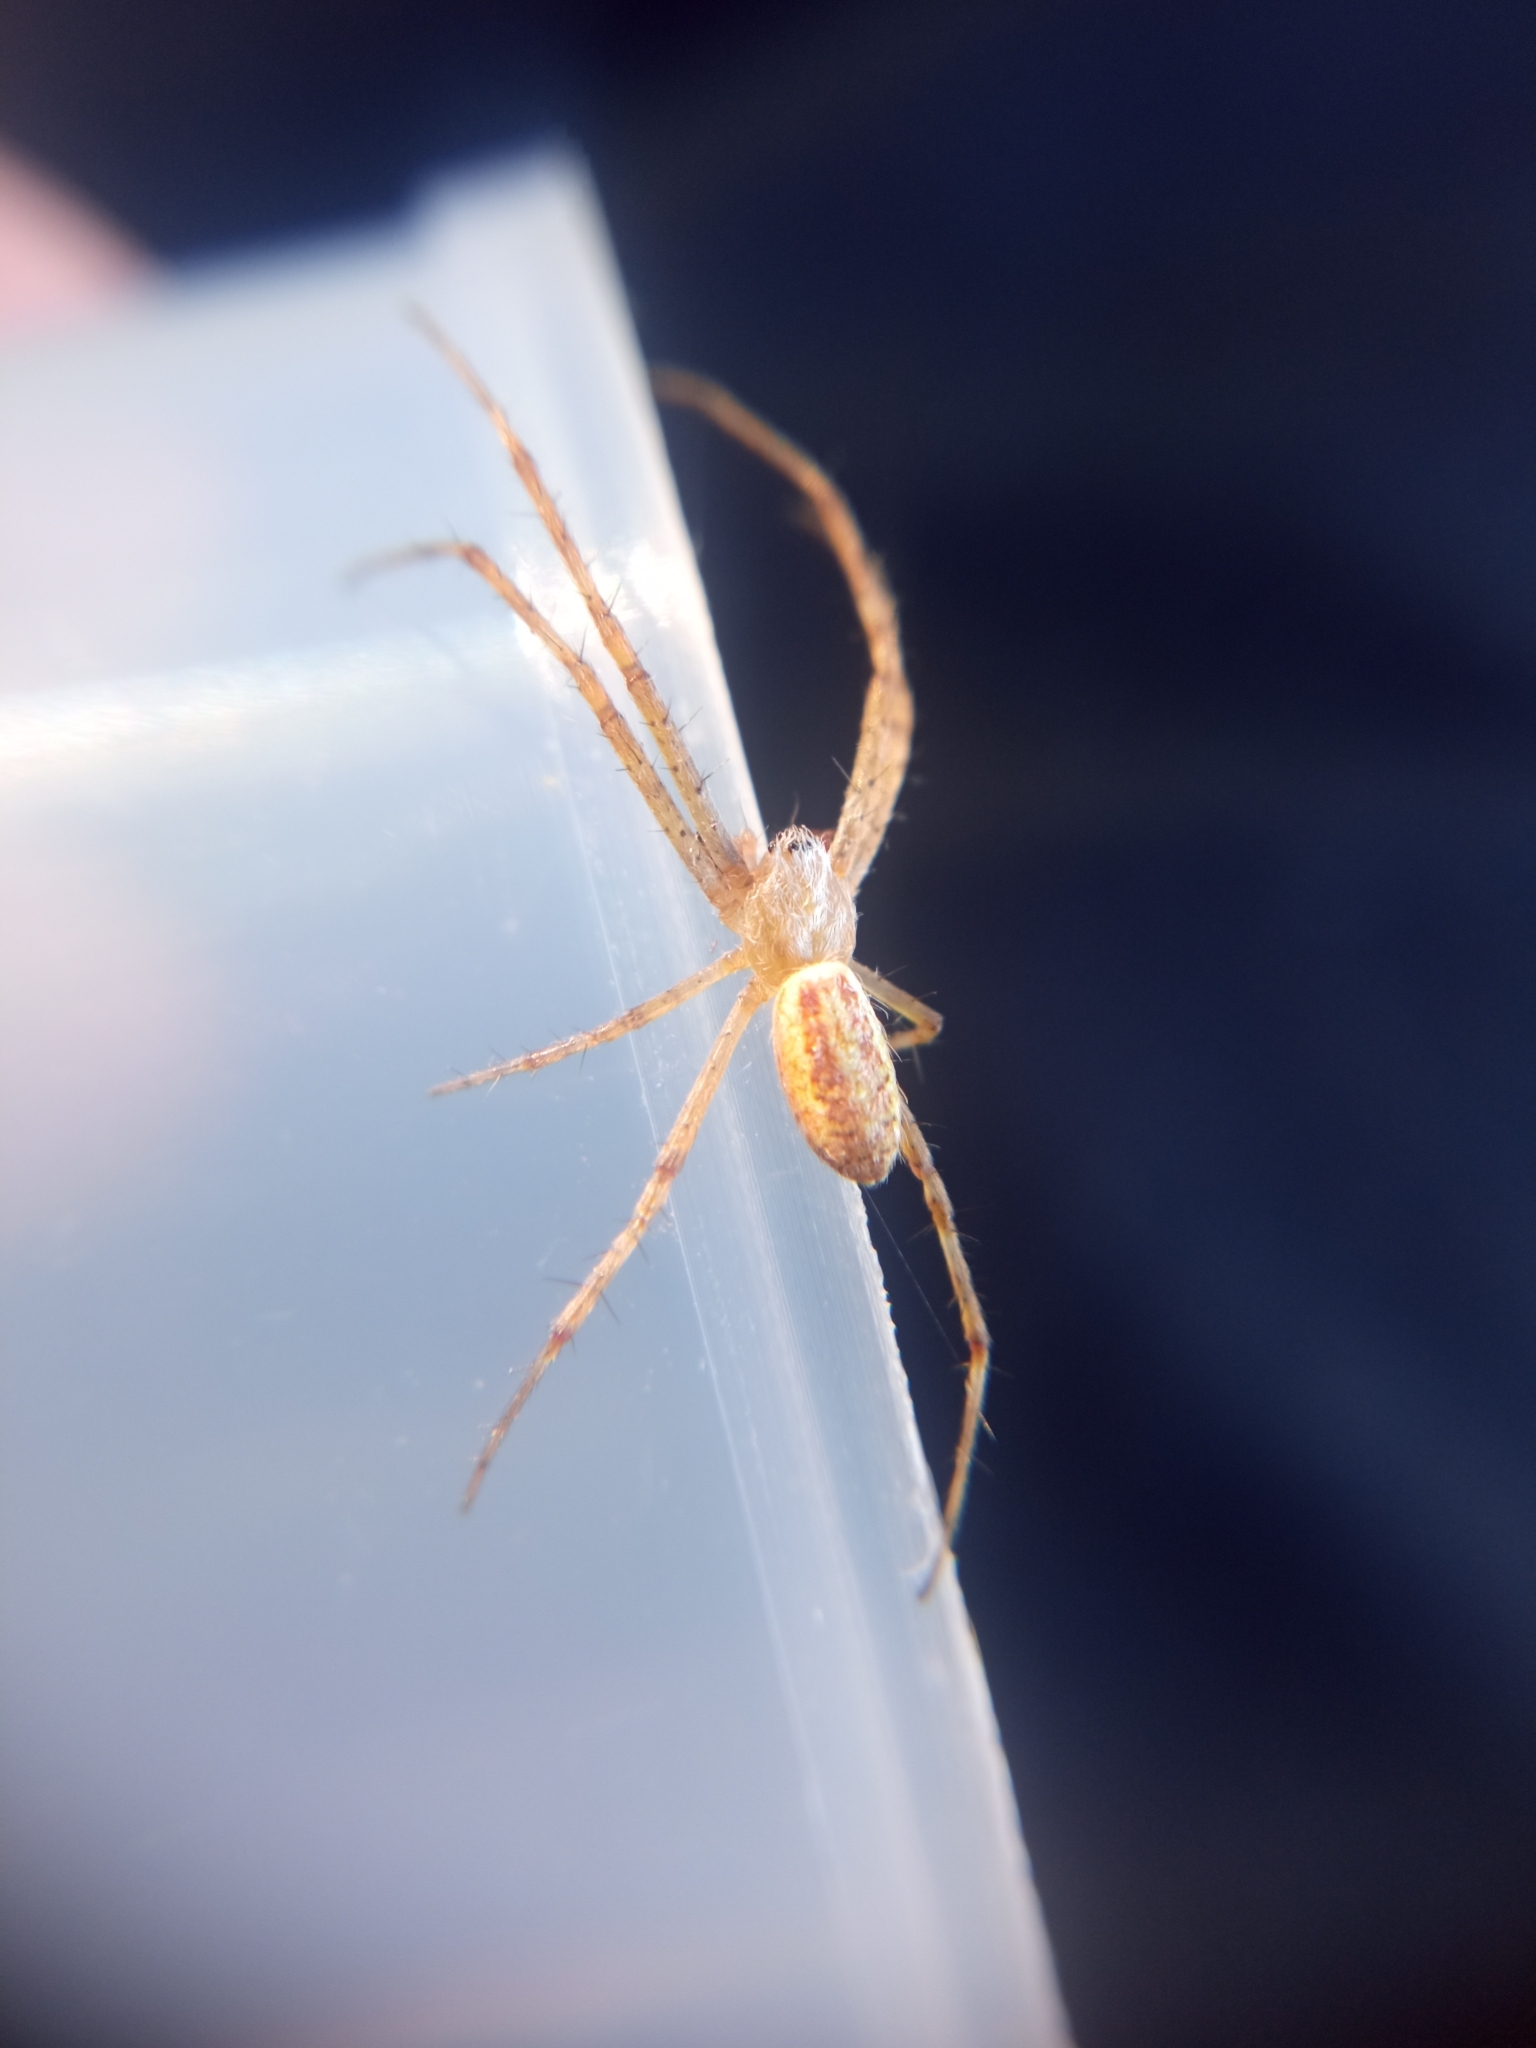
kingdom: Animalia
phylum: Arthropoda
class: Arachnida
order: Araneae
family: Araneidae
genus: Argiope
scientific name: Argiope bruennichi
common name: Wasp spider
